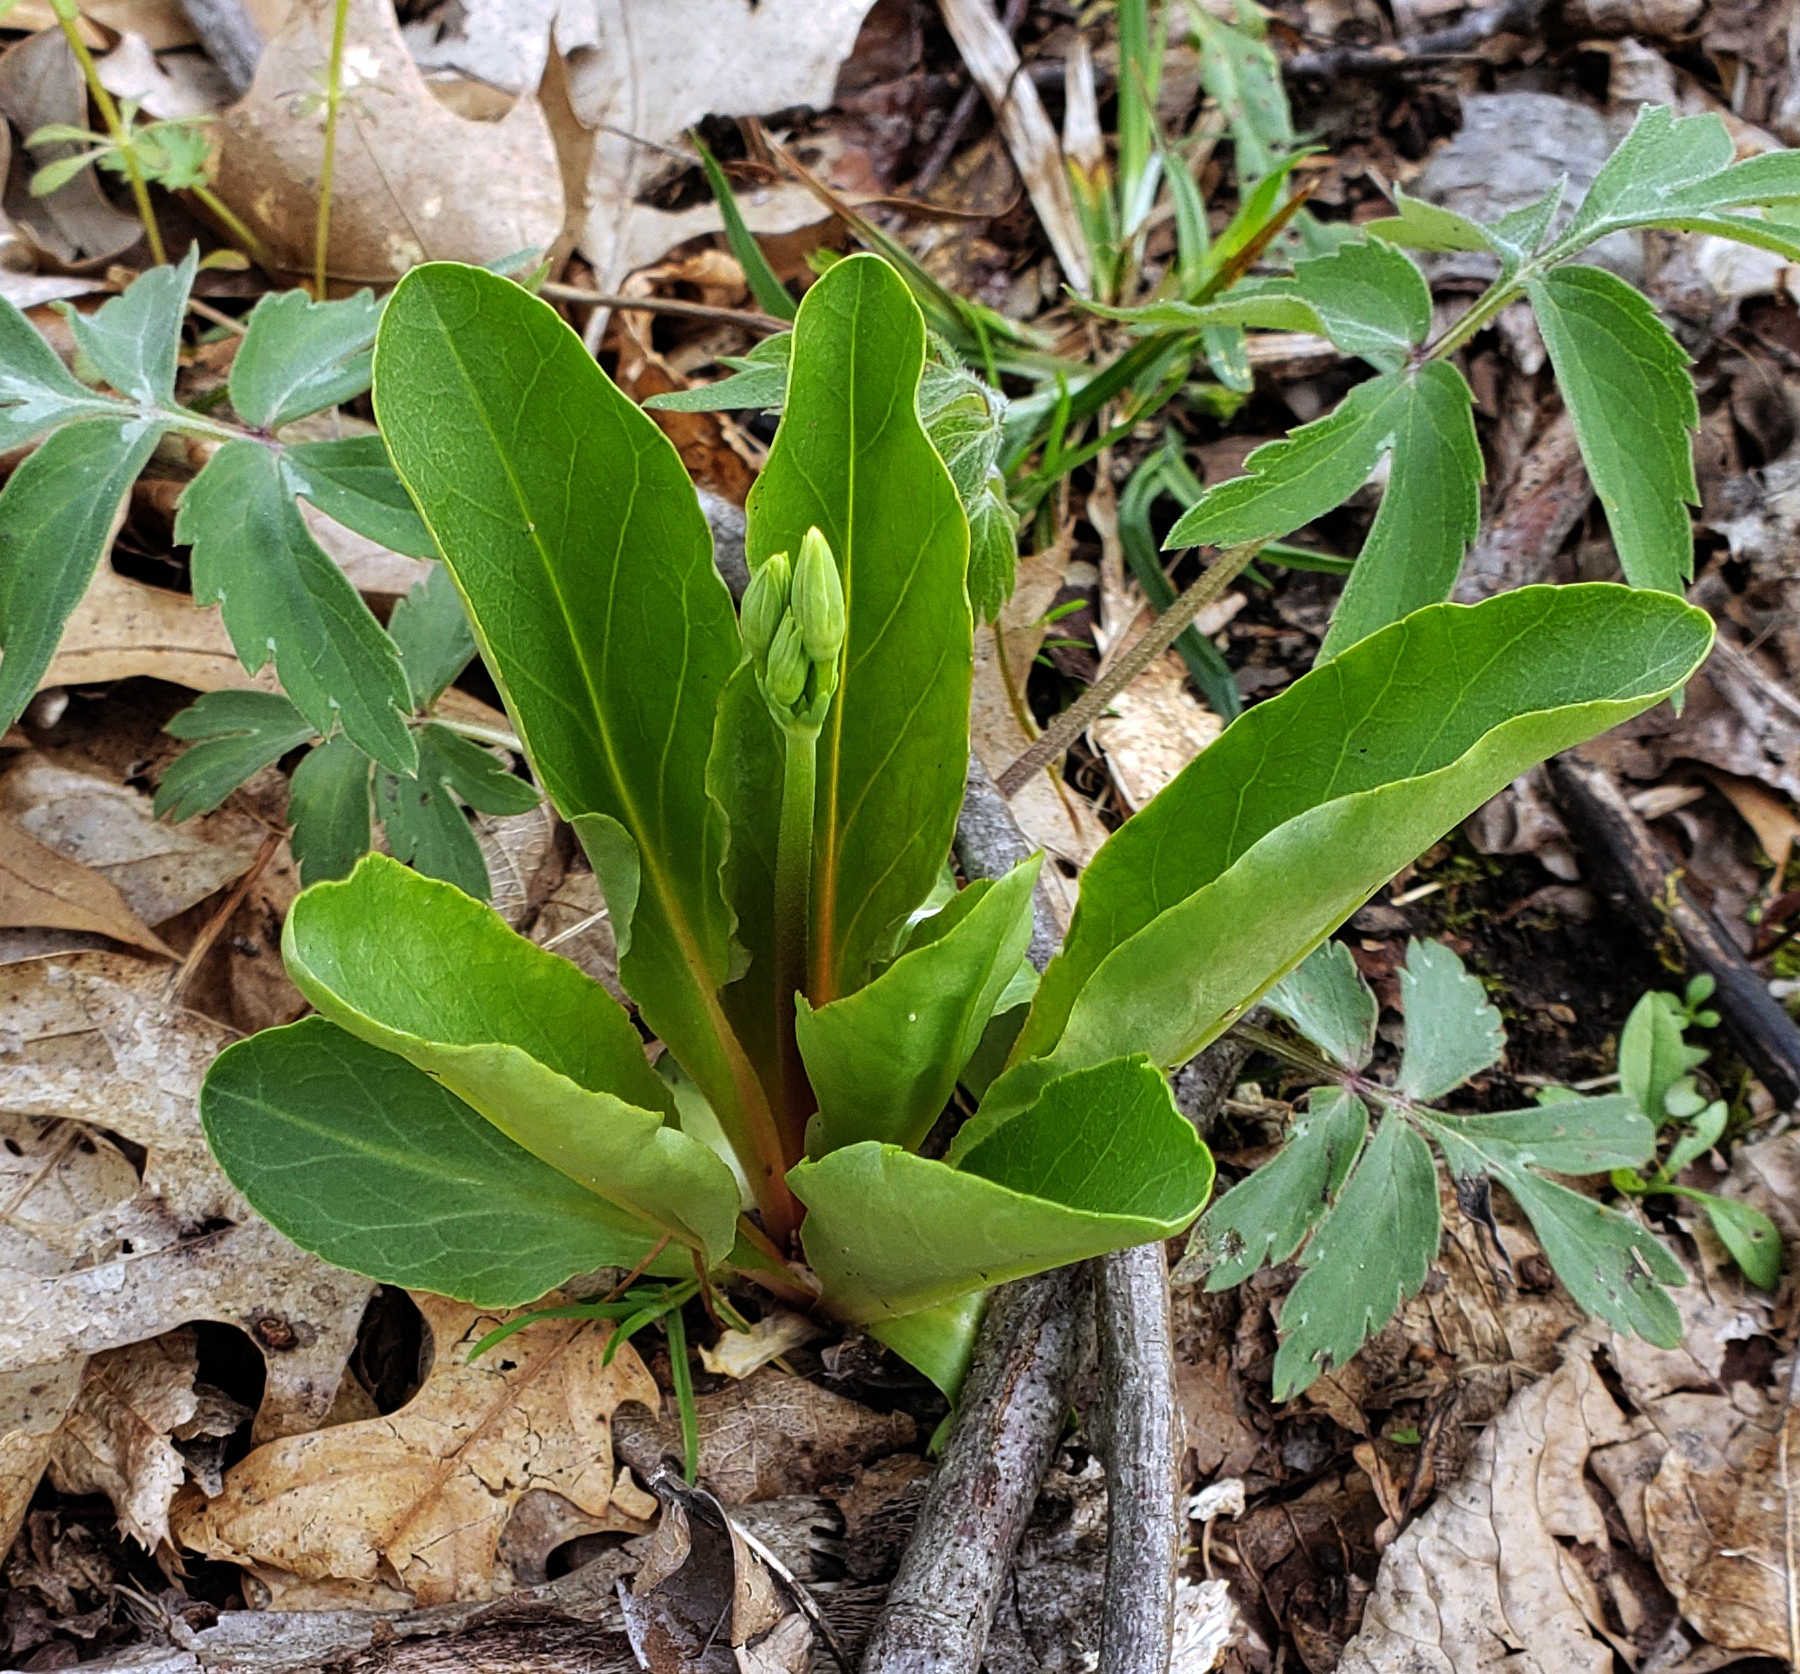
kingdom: Plantae
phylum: Tracheophyta
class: Magnoliopsida
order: Ericales
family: Primulaceae
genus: Dodecatheon
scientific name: Dodecatheon meadia
